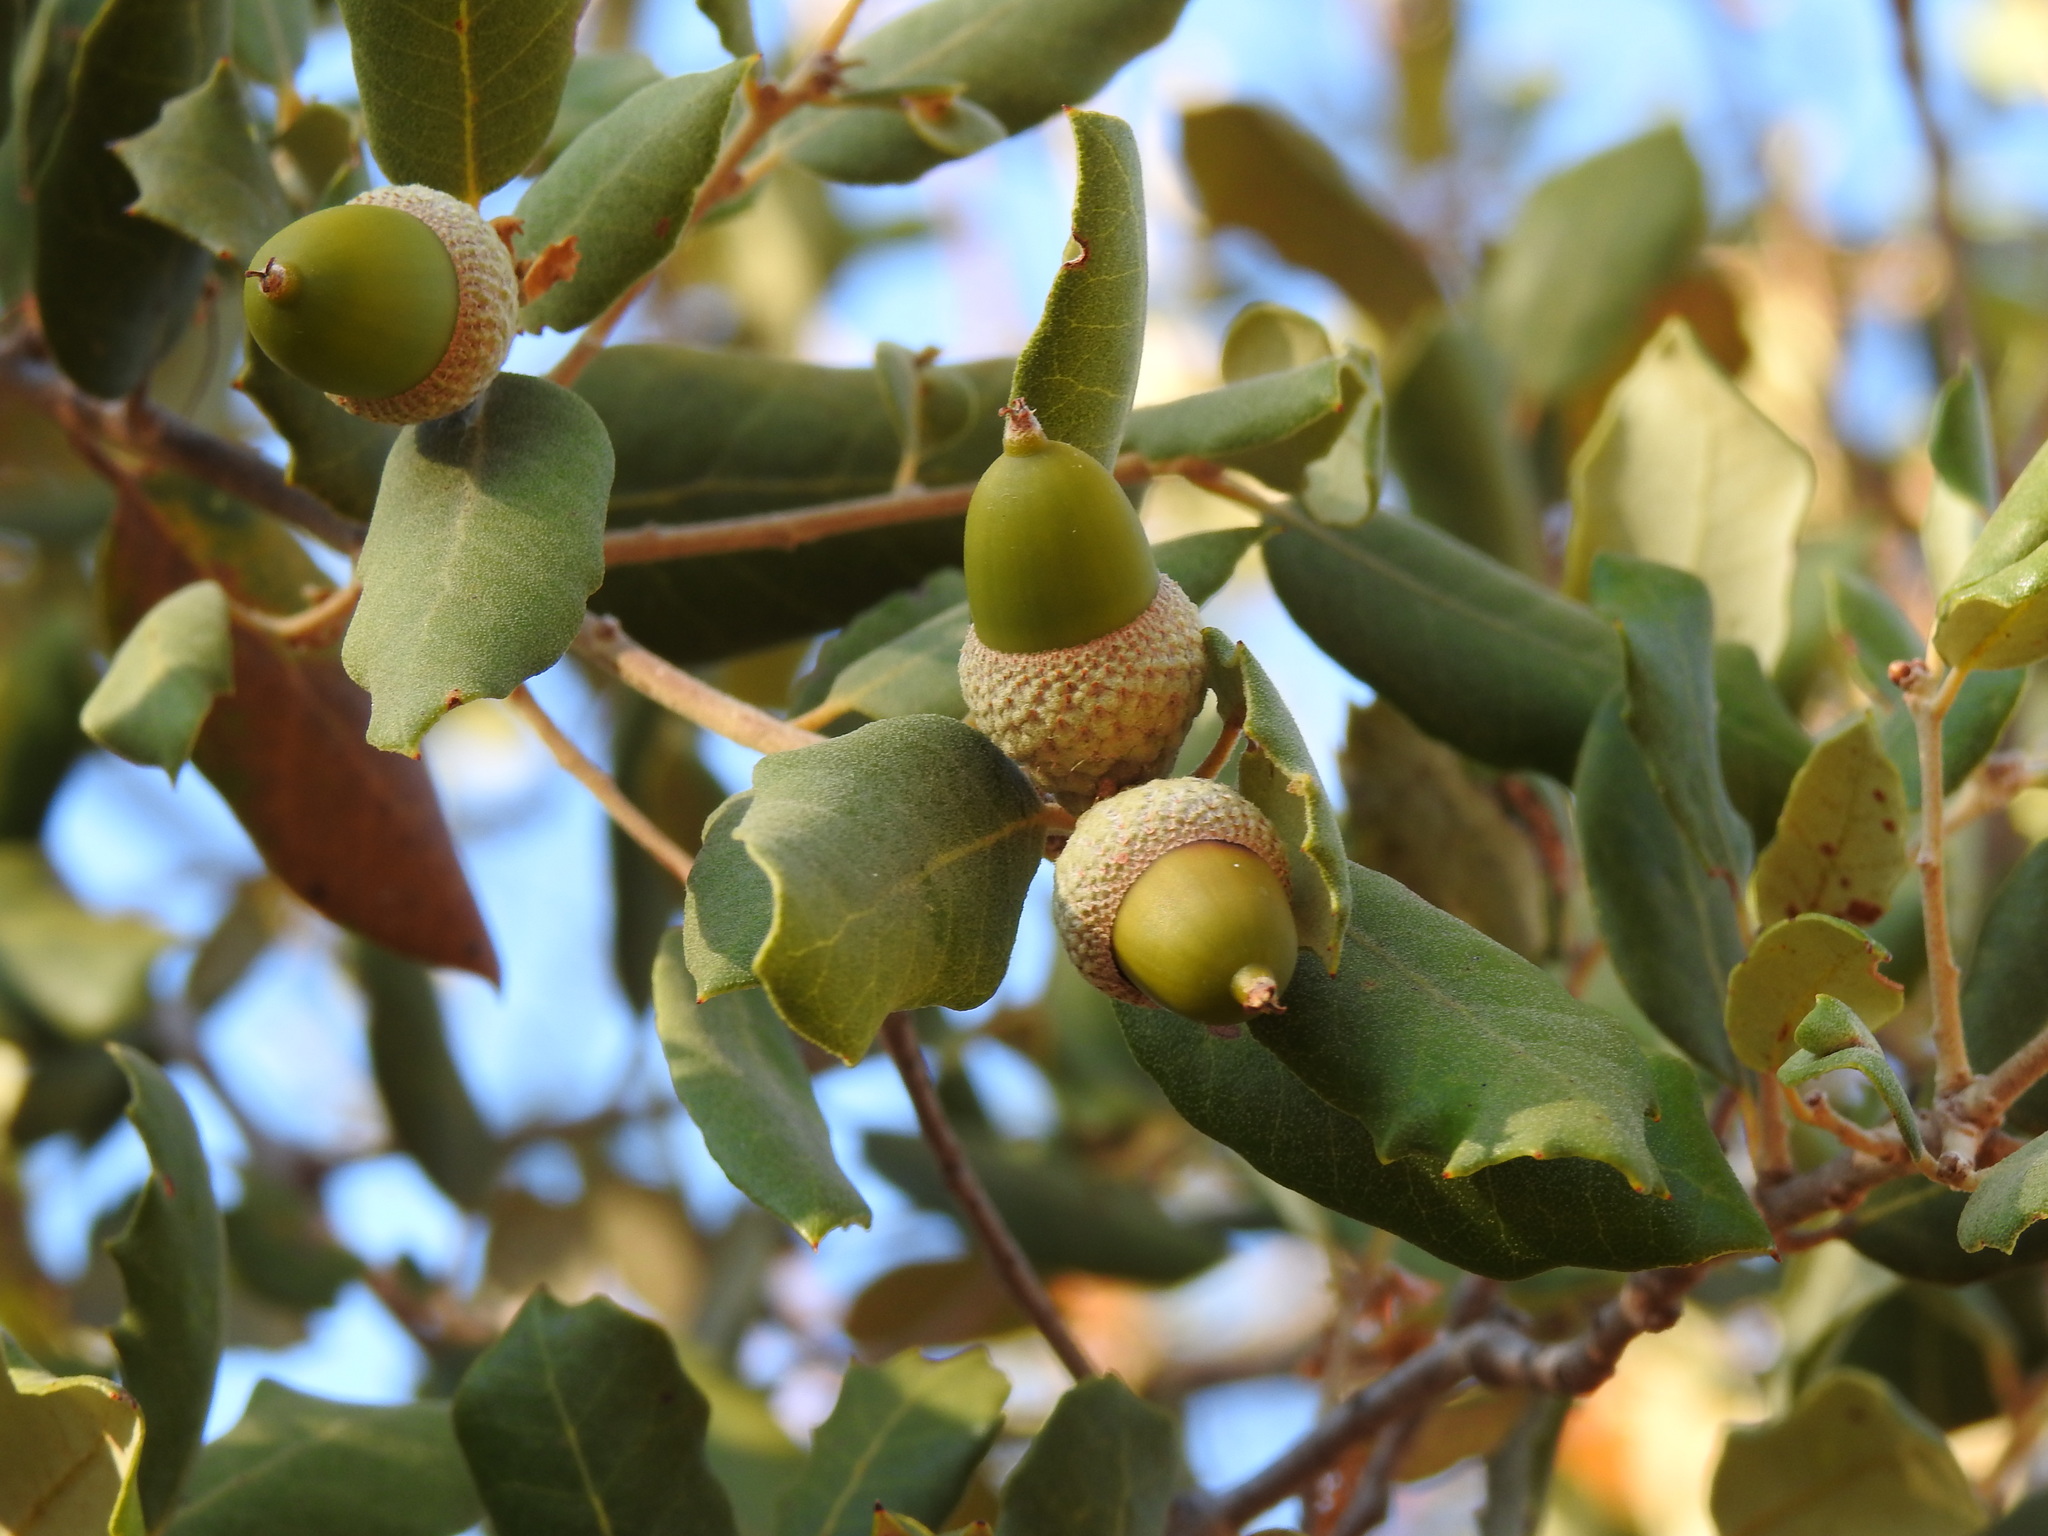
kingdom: Plantae
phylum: Tracheophyta
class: Magnoliopsida
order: Fagales
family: Fagaceae
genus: Quercus
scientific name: Quercus rotundifolia
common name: Holm oak
